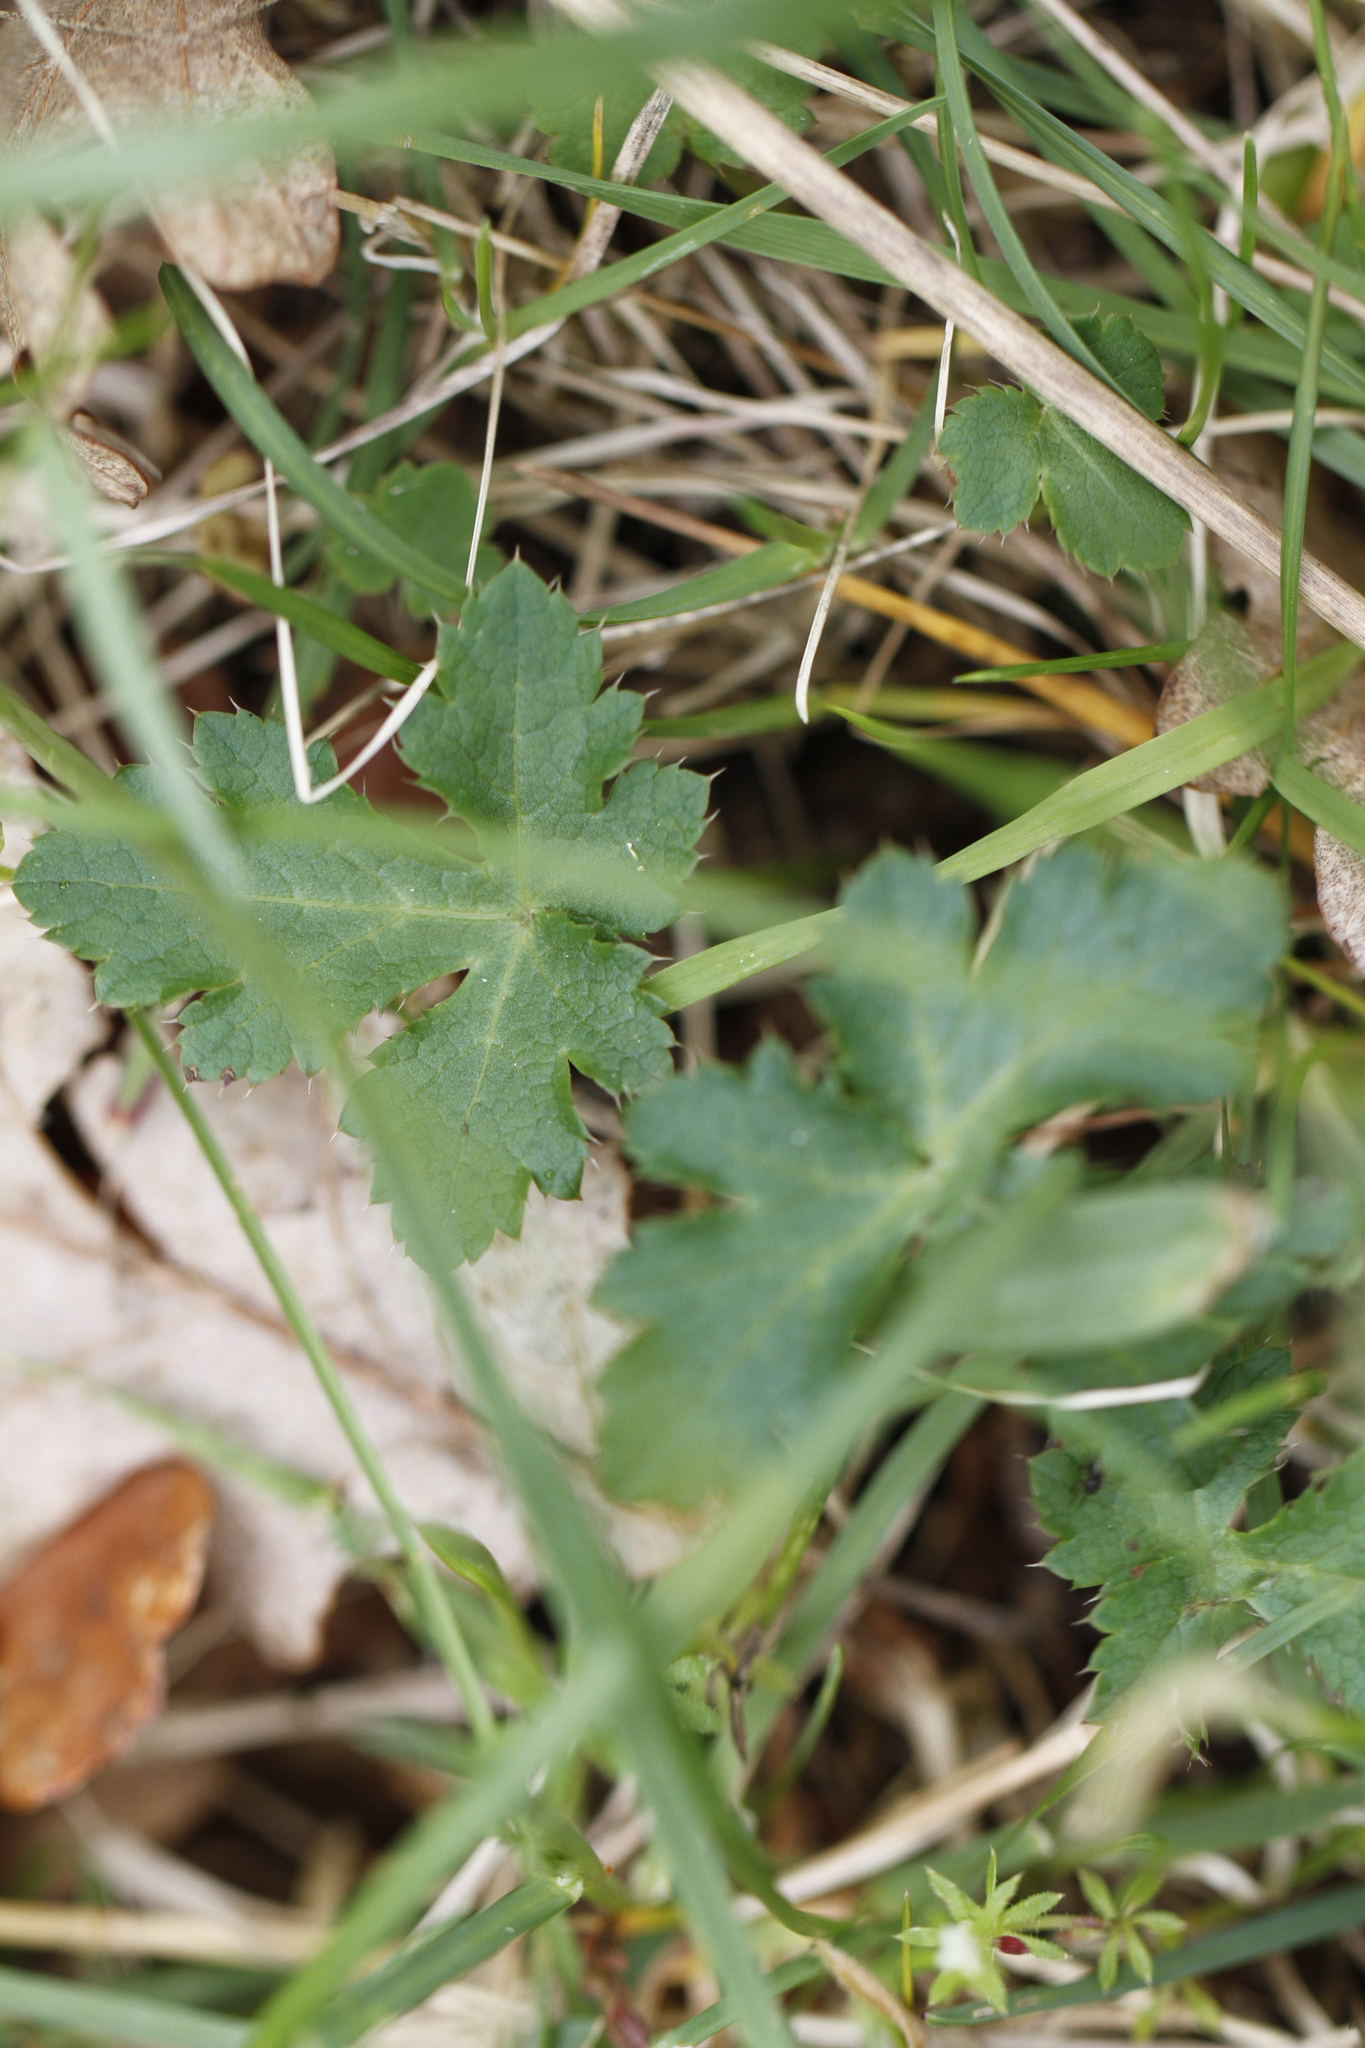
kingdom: Plantae
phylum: Tracheophyta
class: Magnoliopsida
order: Apiales
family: Apiaceae
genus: Sanicula
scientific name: Sanicula crassicaulis
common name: Western snakeroot
